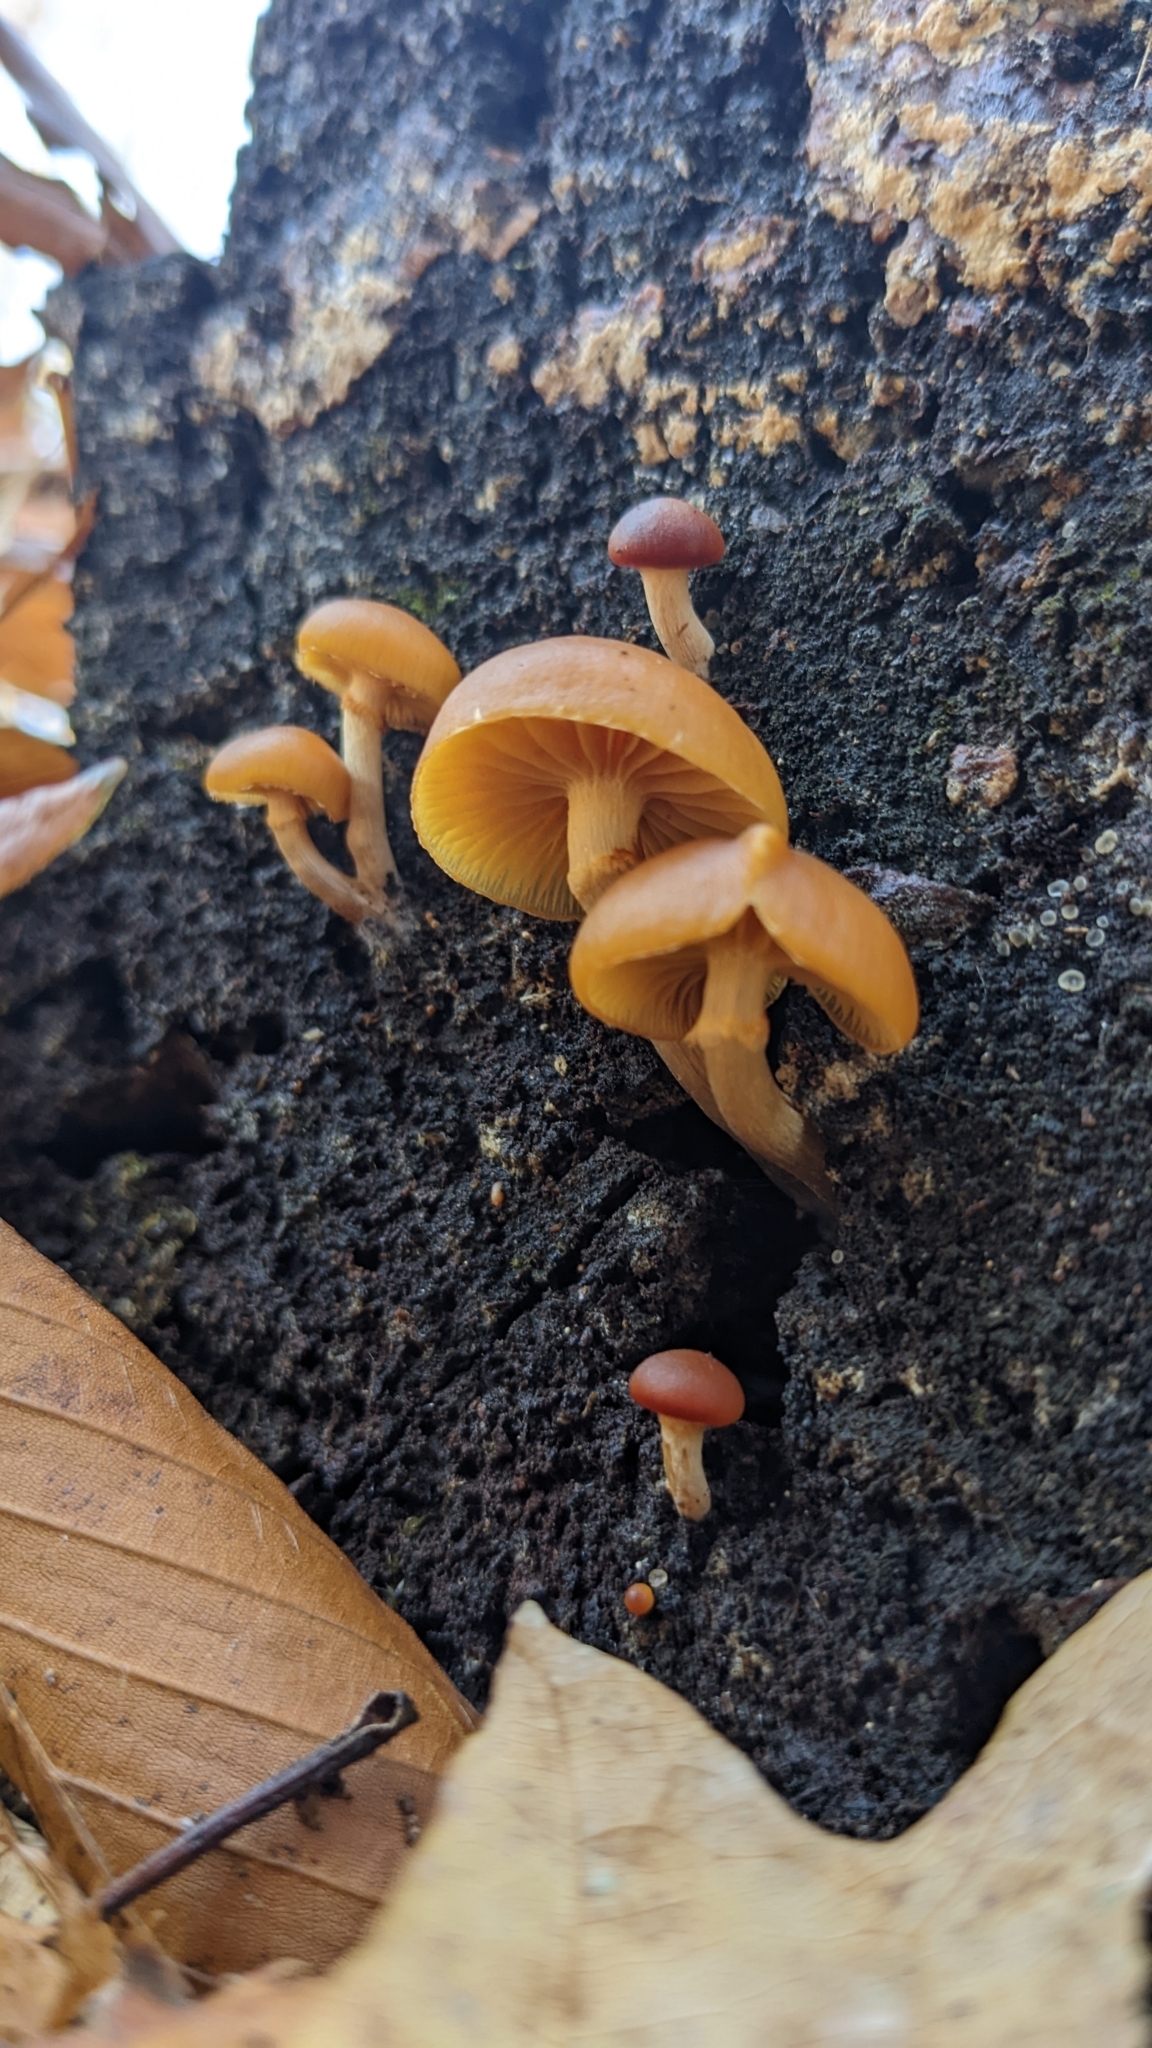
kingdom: Fungi
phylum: Basidiomycota
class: Agaricomycetes
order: Agaricales
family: Hymenogastraceae
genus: Galerina
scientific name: Galerina marginata
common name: Funeral bell
